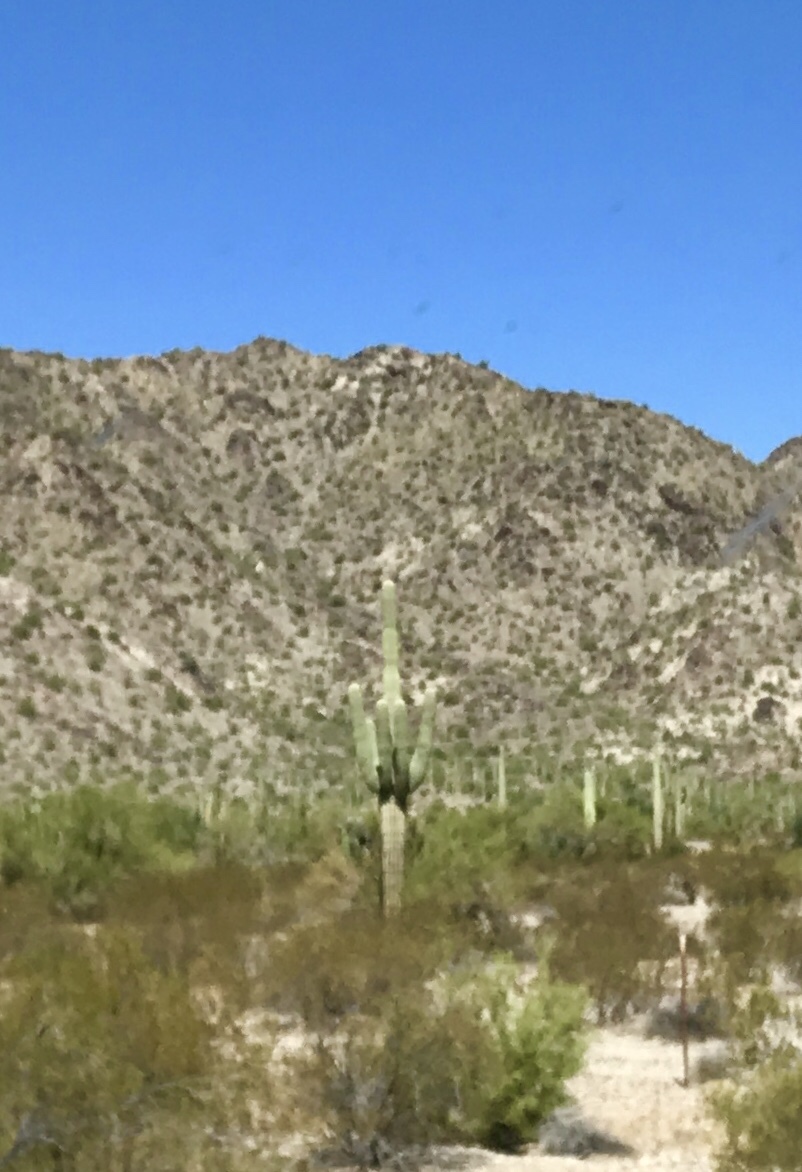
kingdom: Plantae
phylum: Tracheophyta
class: Magnoliopsida
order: Caryophyllales
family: Cactaceae
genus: Carnegiea
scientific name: Carnegiea gigantea
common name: Saguaro
